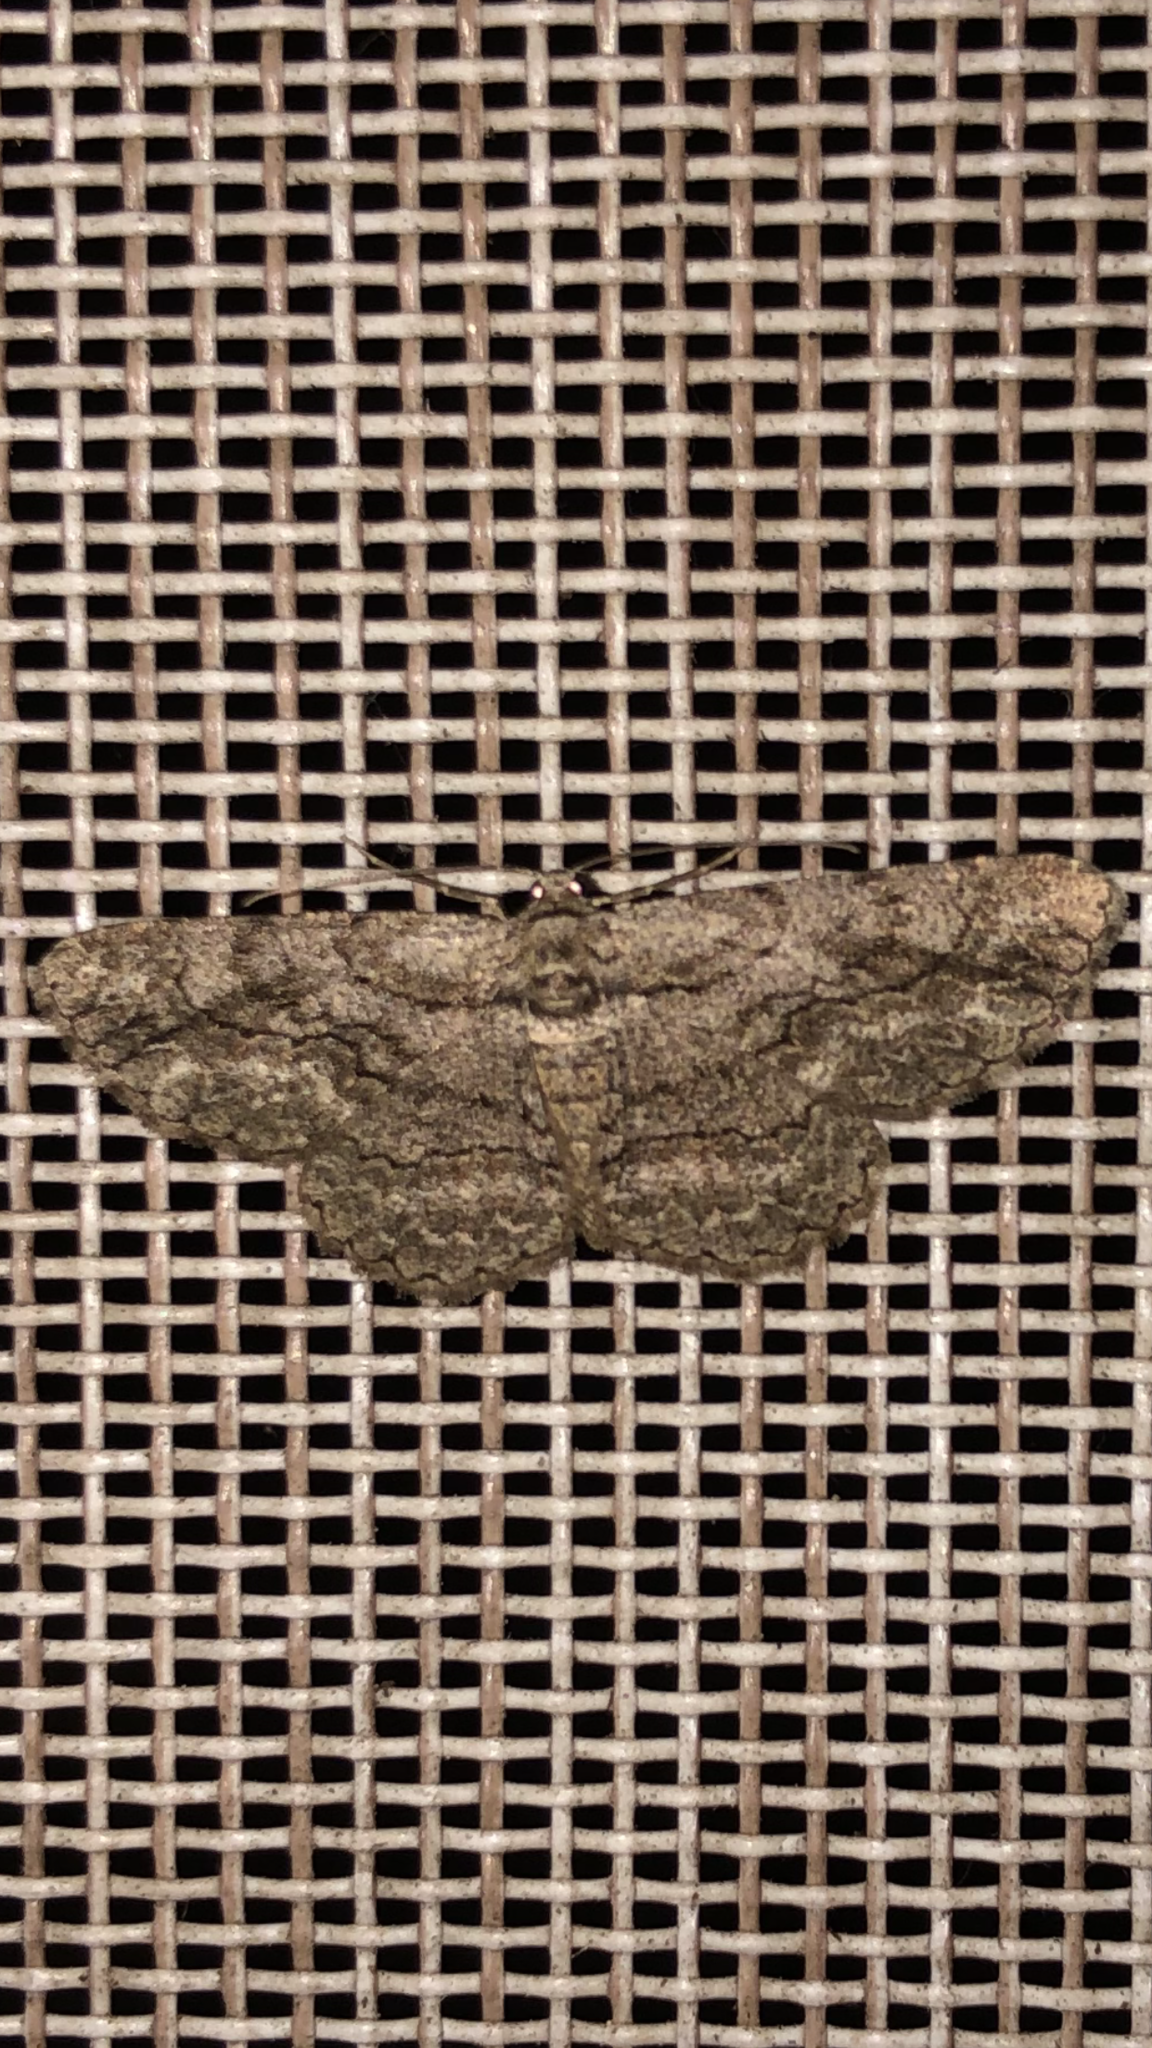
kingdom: Animalia
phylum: Arthropoda
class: Insecta
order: Lepidoptera
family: Geometridae
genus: Anavitrinella
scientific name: Anavitrinella pampinaria
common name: Common gray
